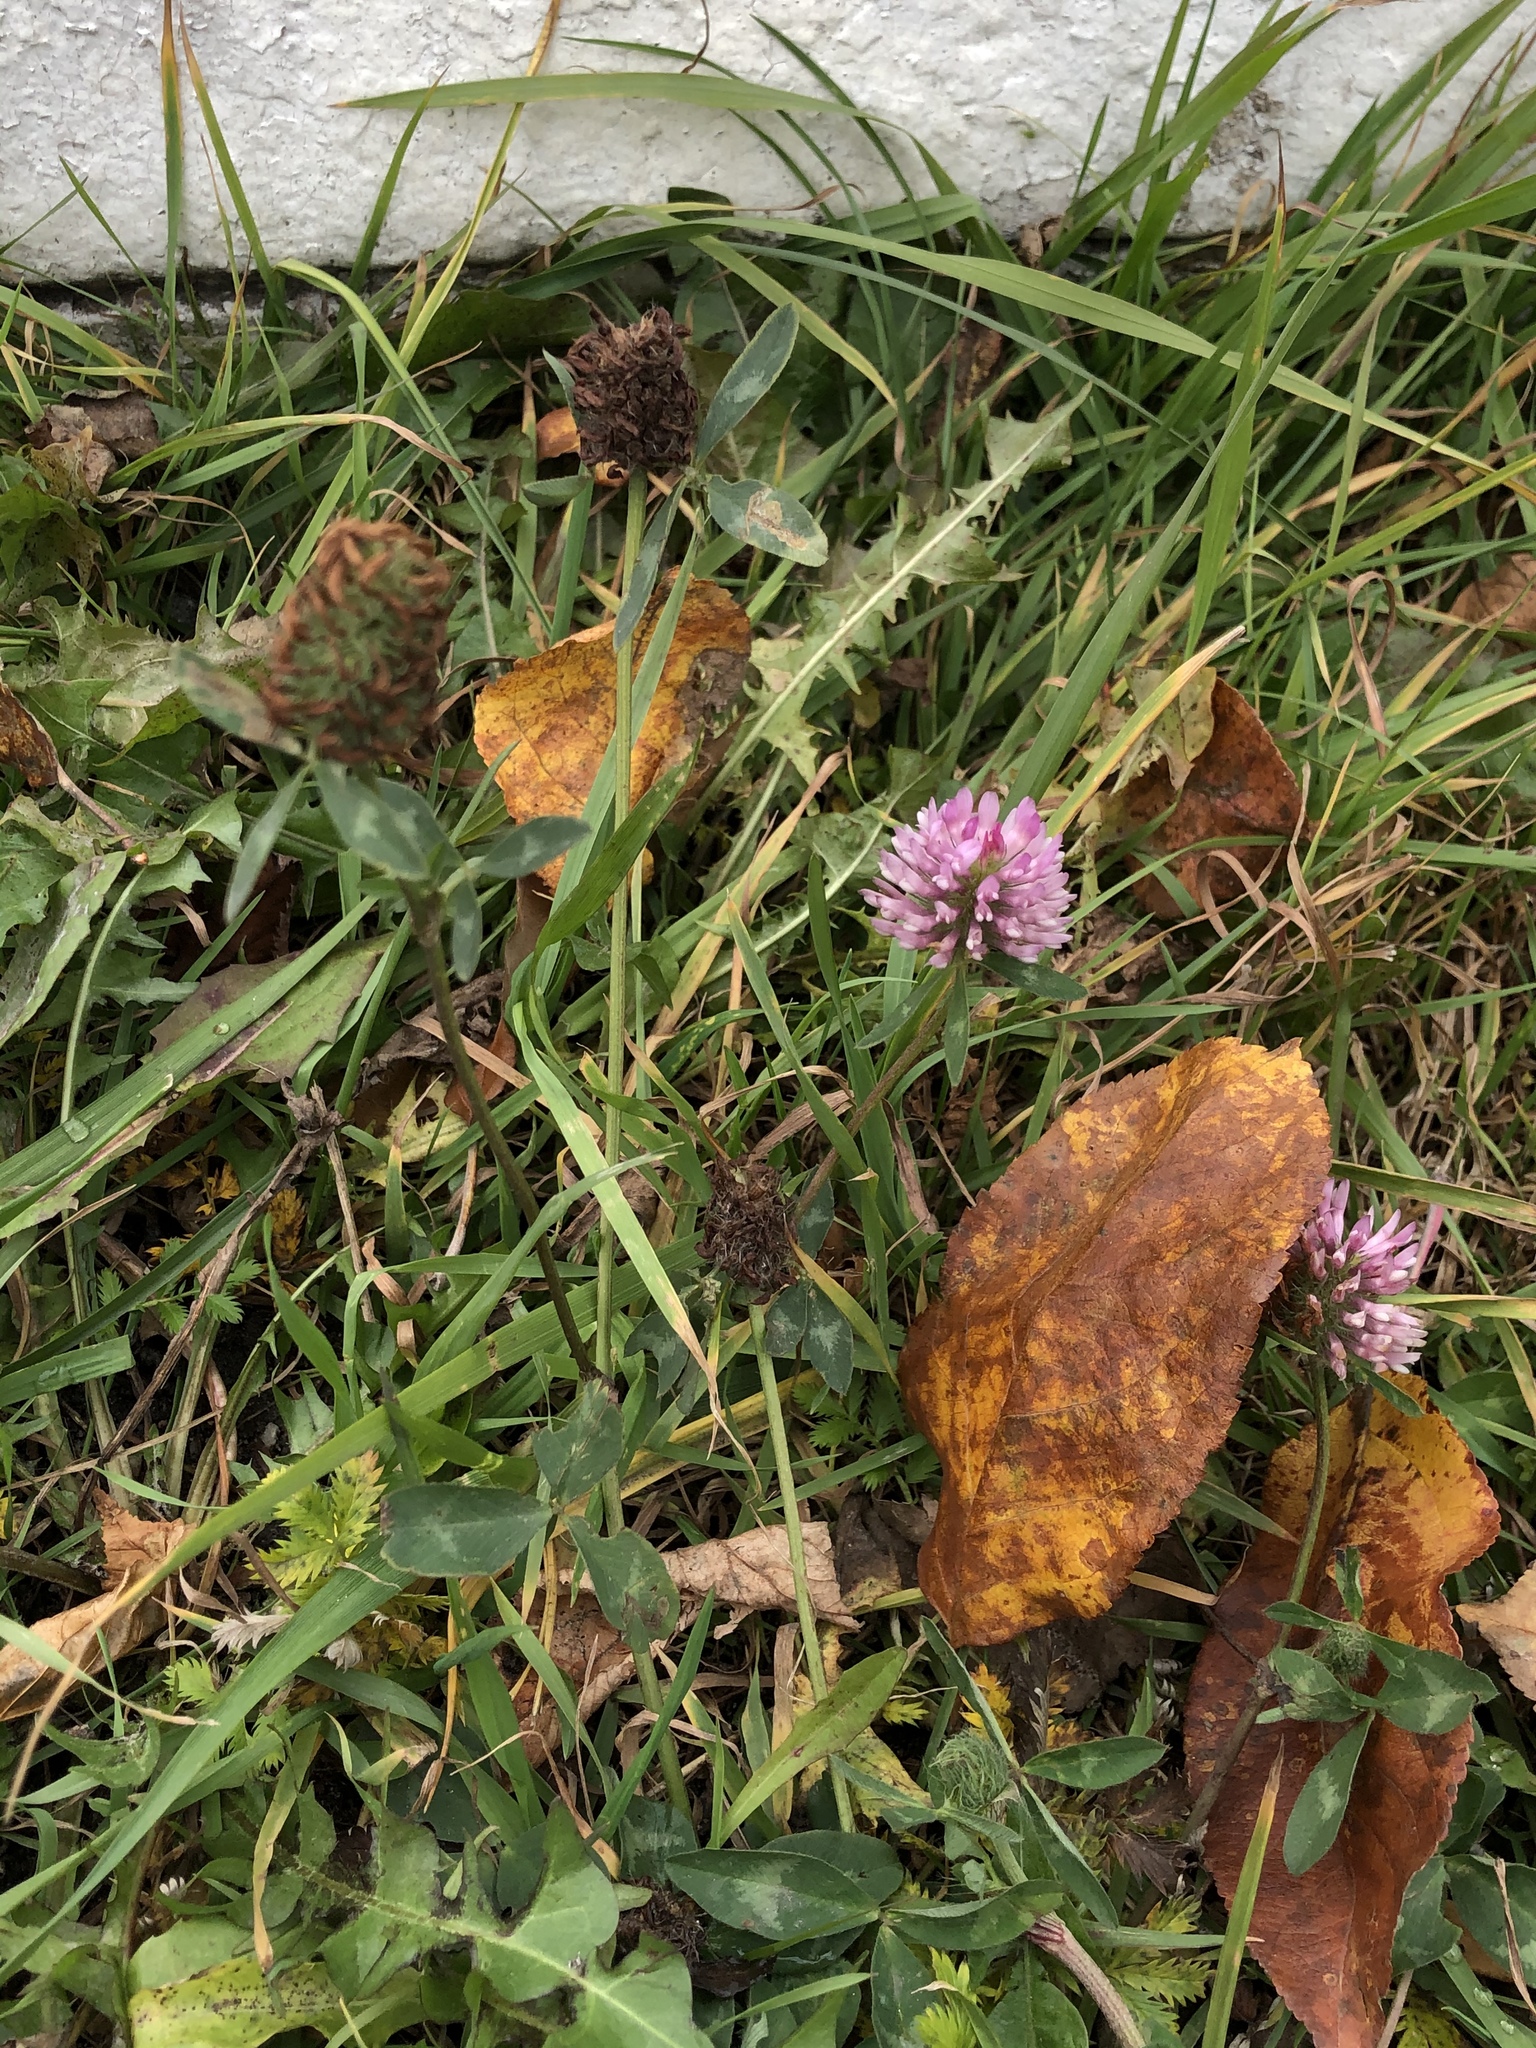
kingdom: Plantae
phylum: Tracheophyta
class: Magnoliopsida
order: Fabales
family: Fabaceae
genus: Trifolium
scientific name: Trifolium pratense
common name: Red clover
